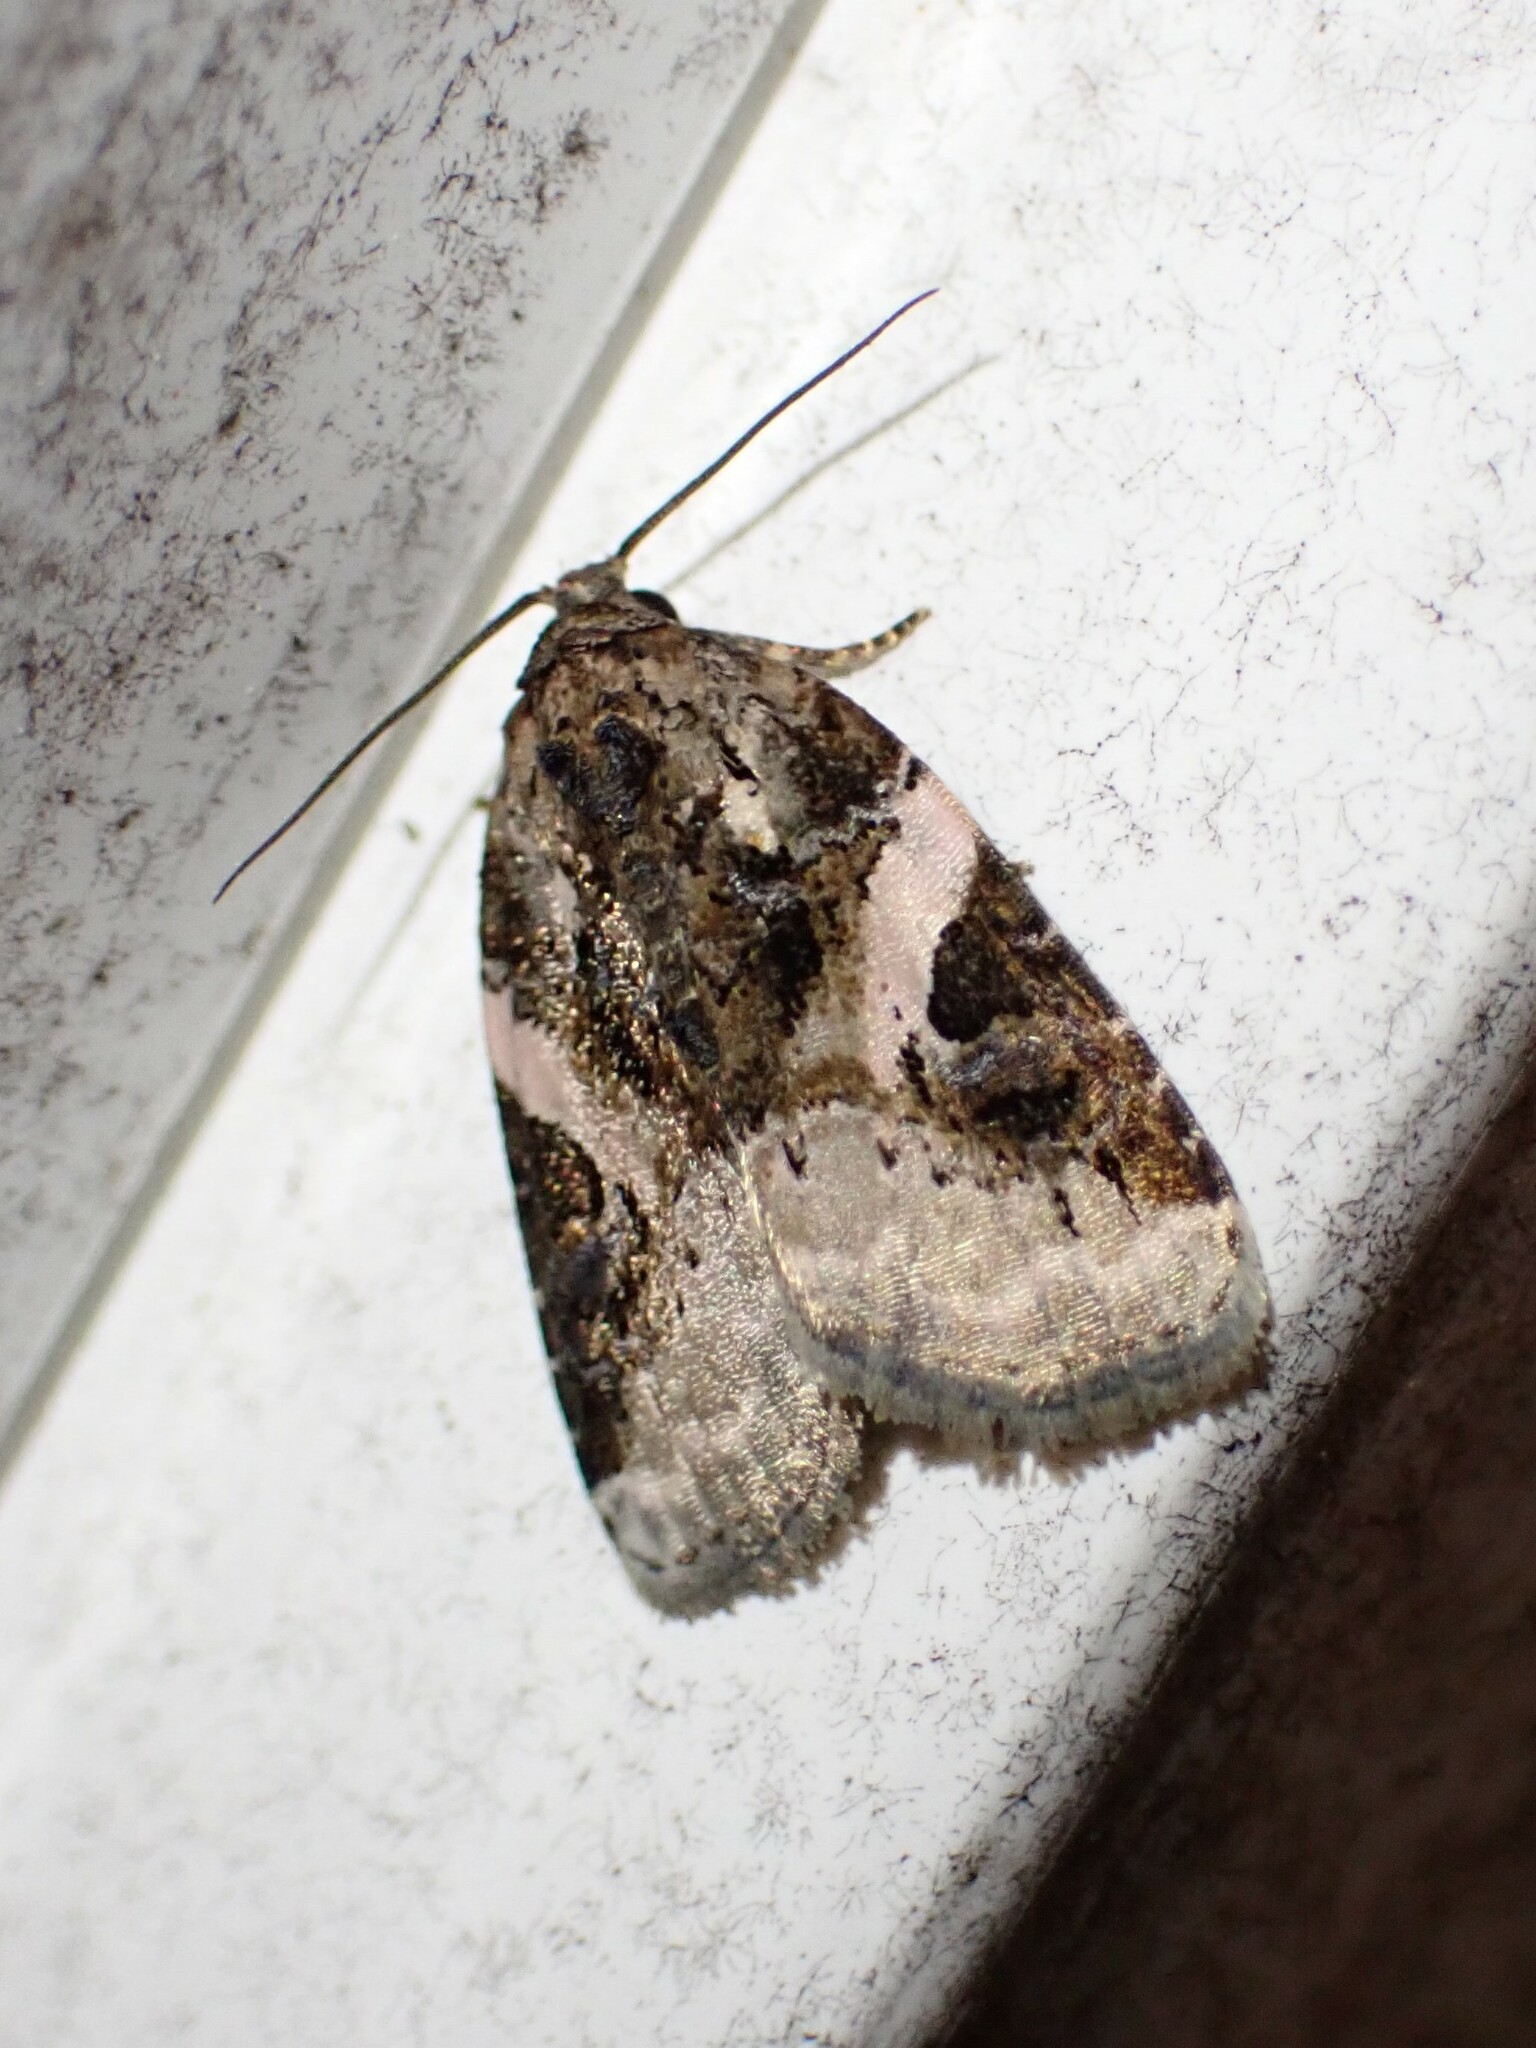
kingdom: Animalia
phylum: Arthropoda
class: Insecta
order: Lepidoptera
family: Noctuidae
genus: Pseudeustrotia
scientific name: Pseudeustrotia carneola
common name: Pink-barred lithacodia moth
